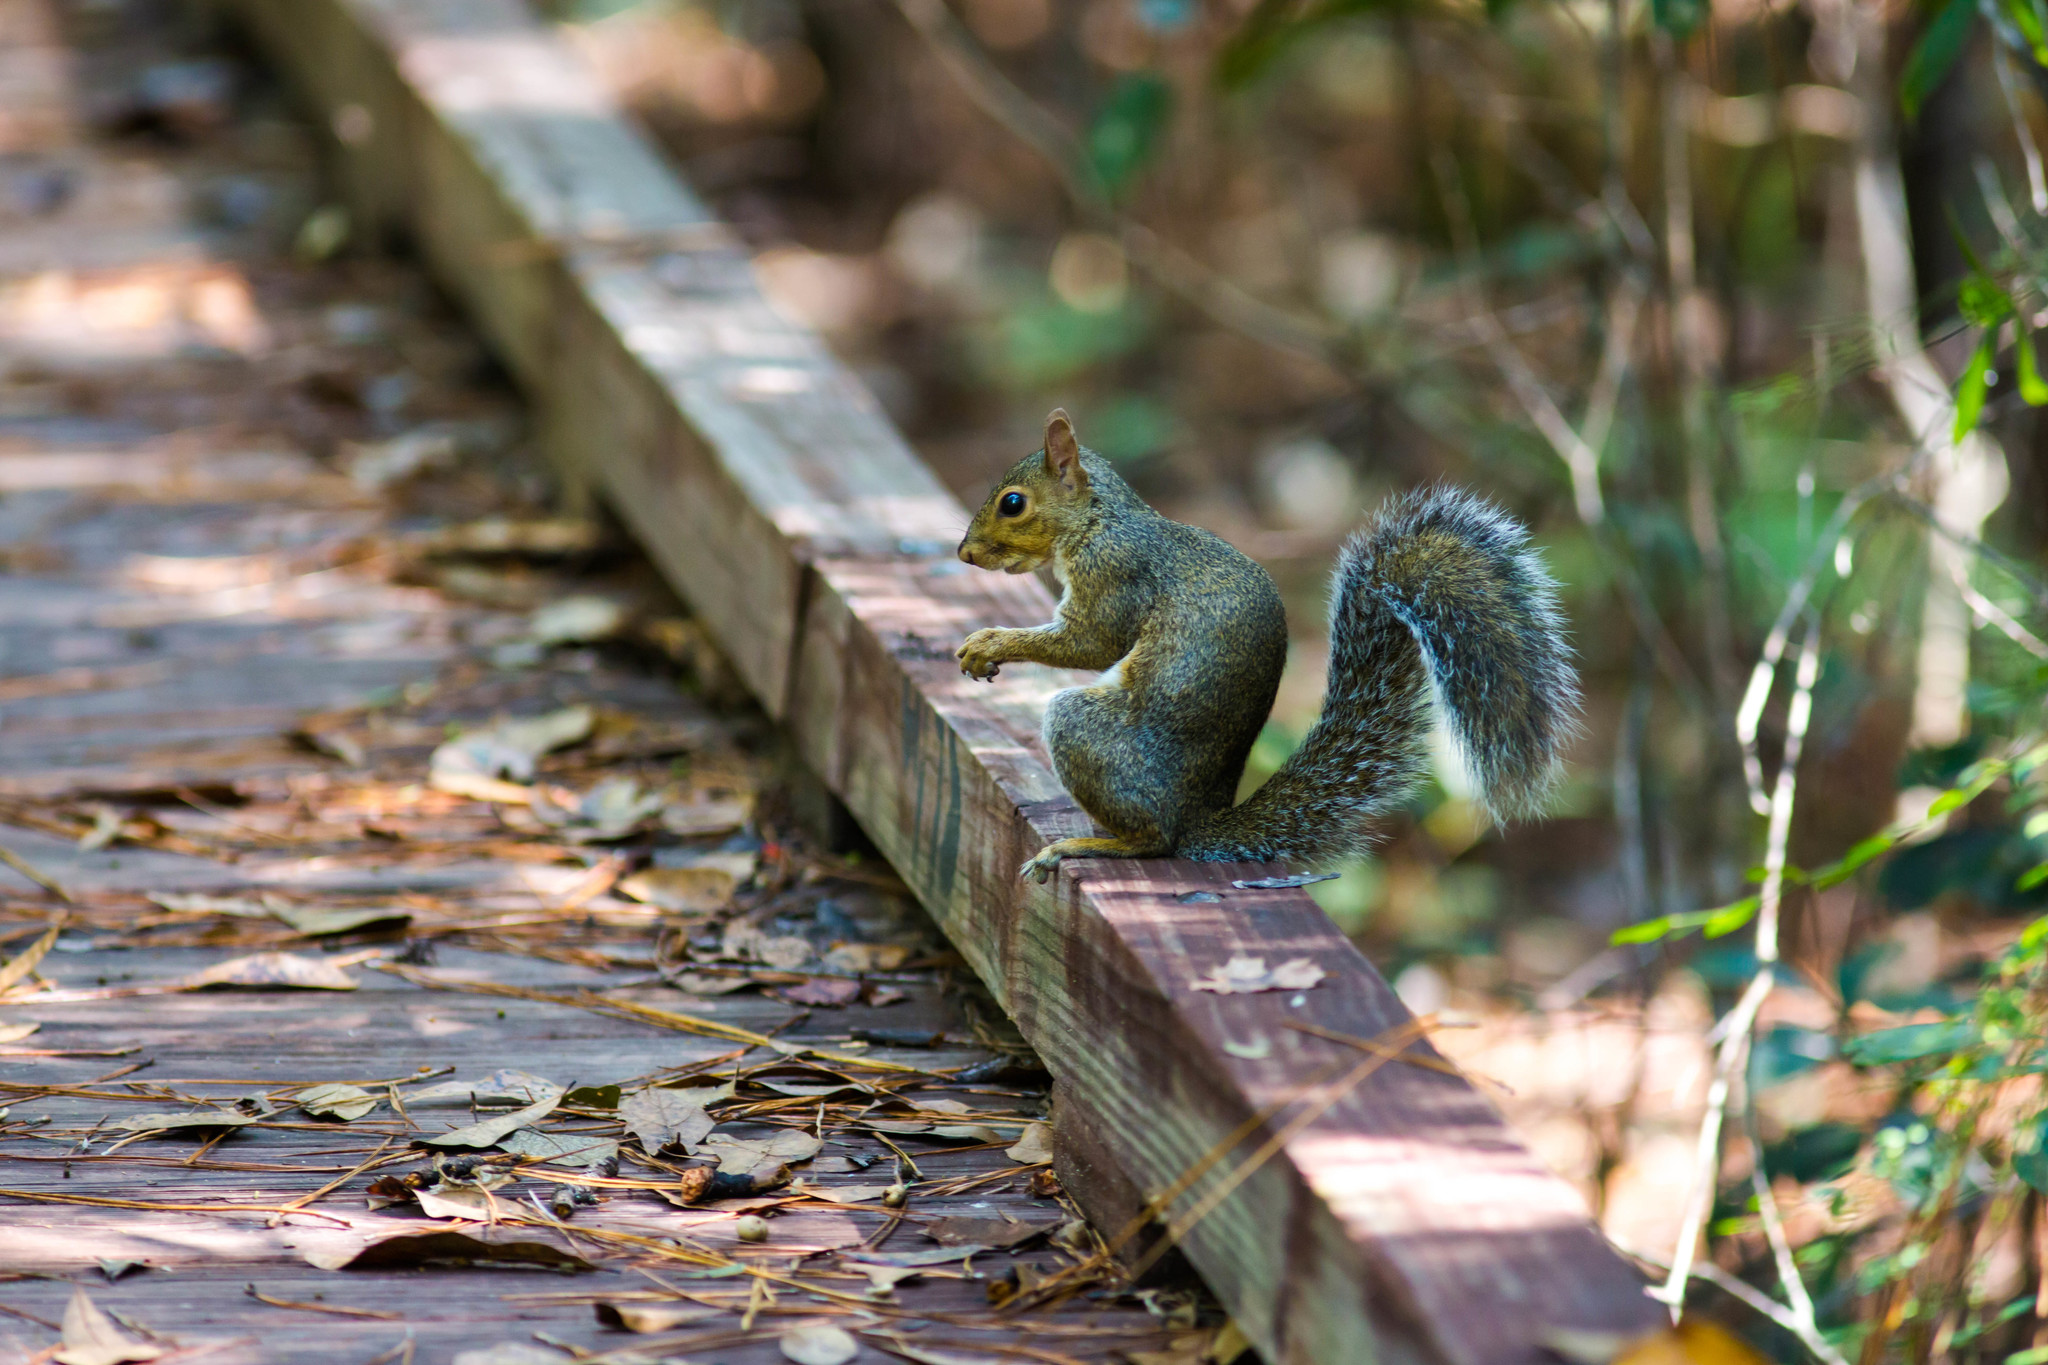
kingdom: Animalia
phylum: Chordata
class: Mammalia
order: Rodentia
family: Sciuridae
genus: Sciurus
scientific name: Sciurus carolinensis
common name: Eastern gray squirrel
